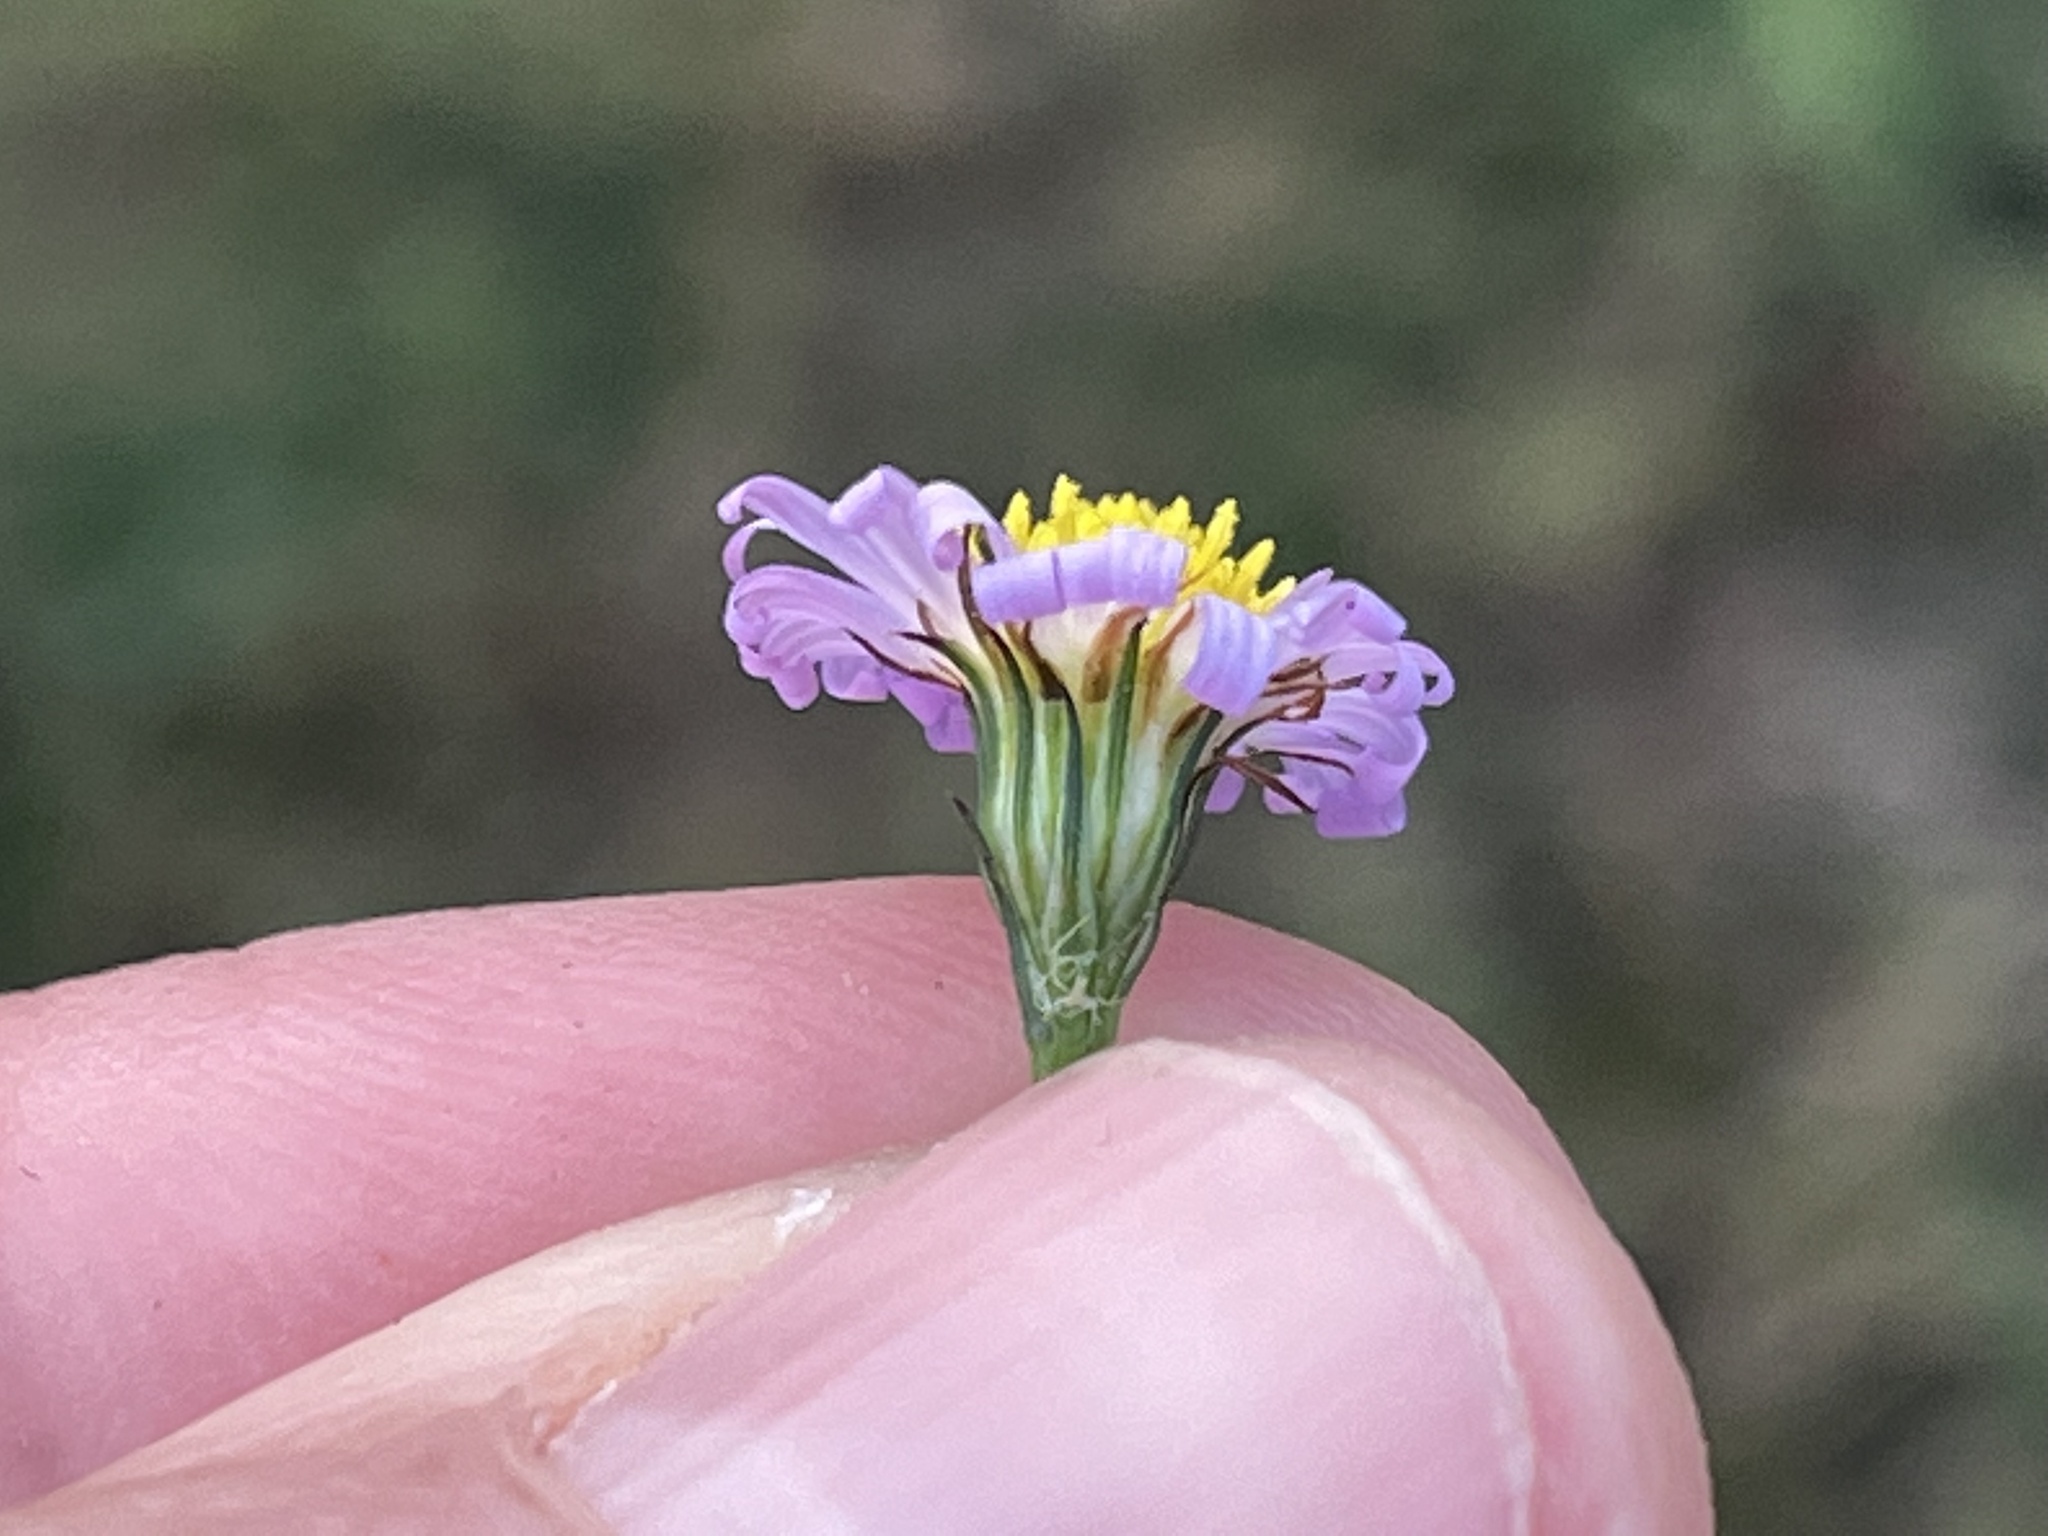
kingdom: Plantae
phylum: Tracheophyta
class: Magnoliopsida
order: Asterales
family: Asteraceae
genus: Symphyotrichum
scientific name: Symphyotrichum divaricatum
